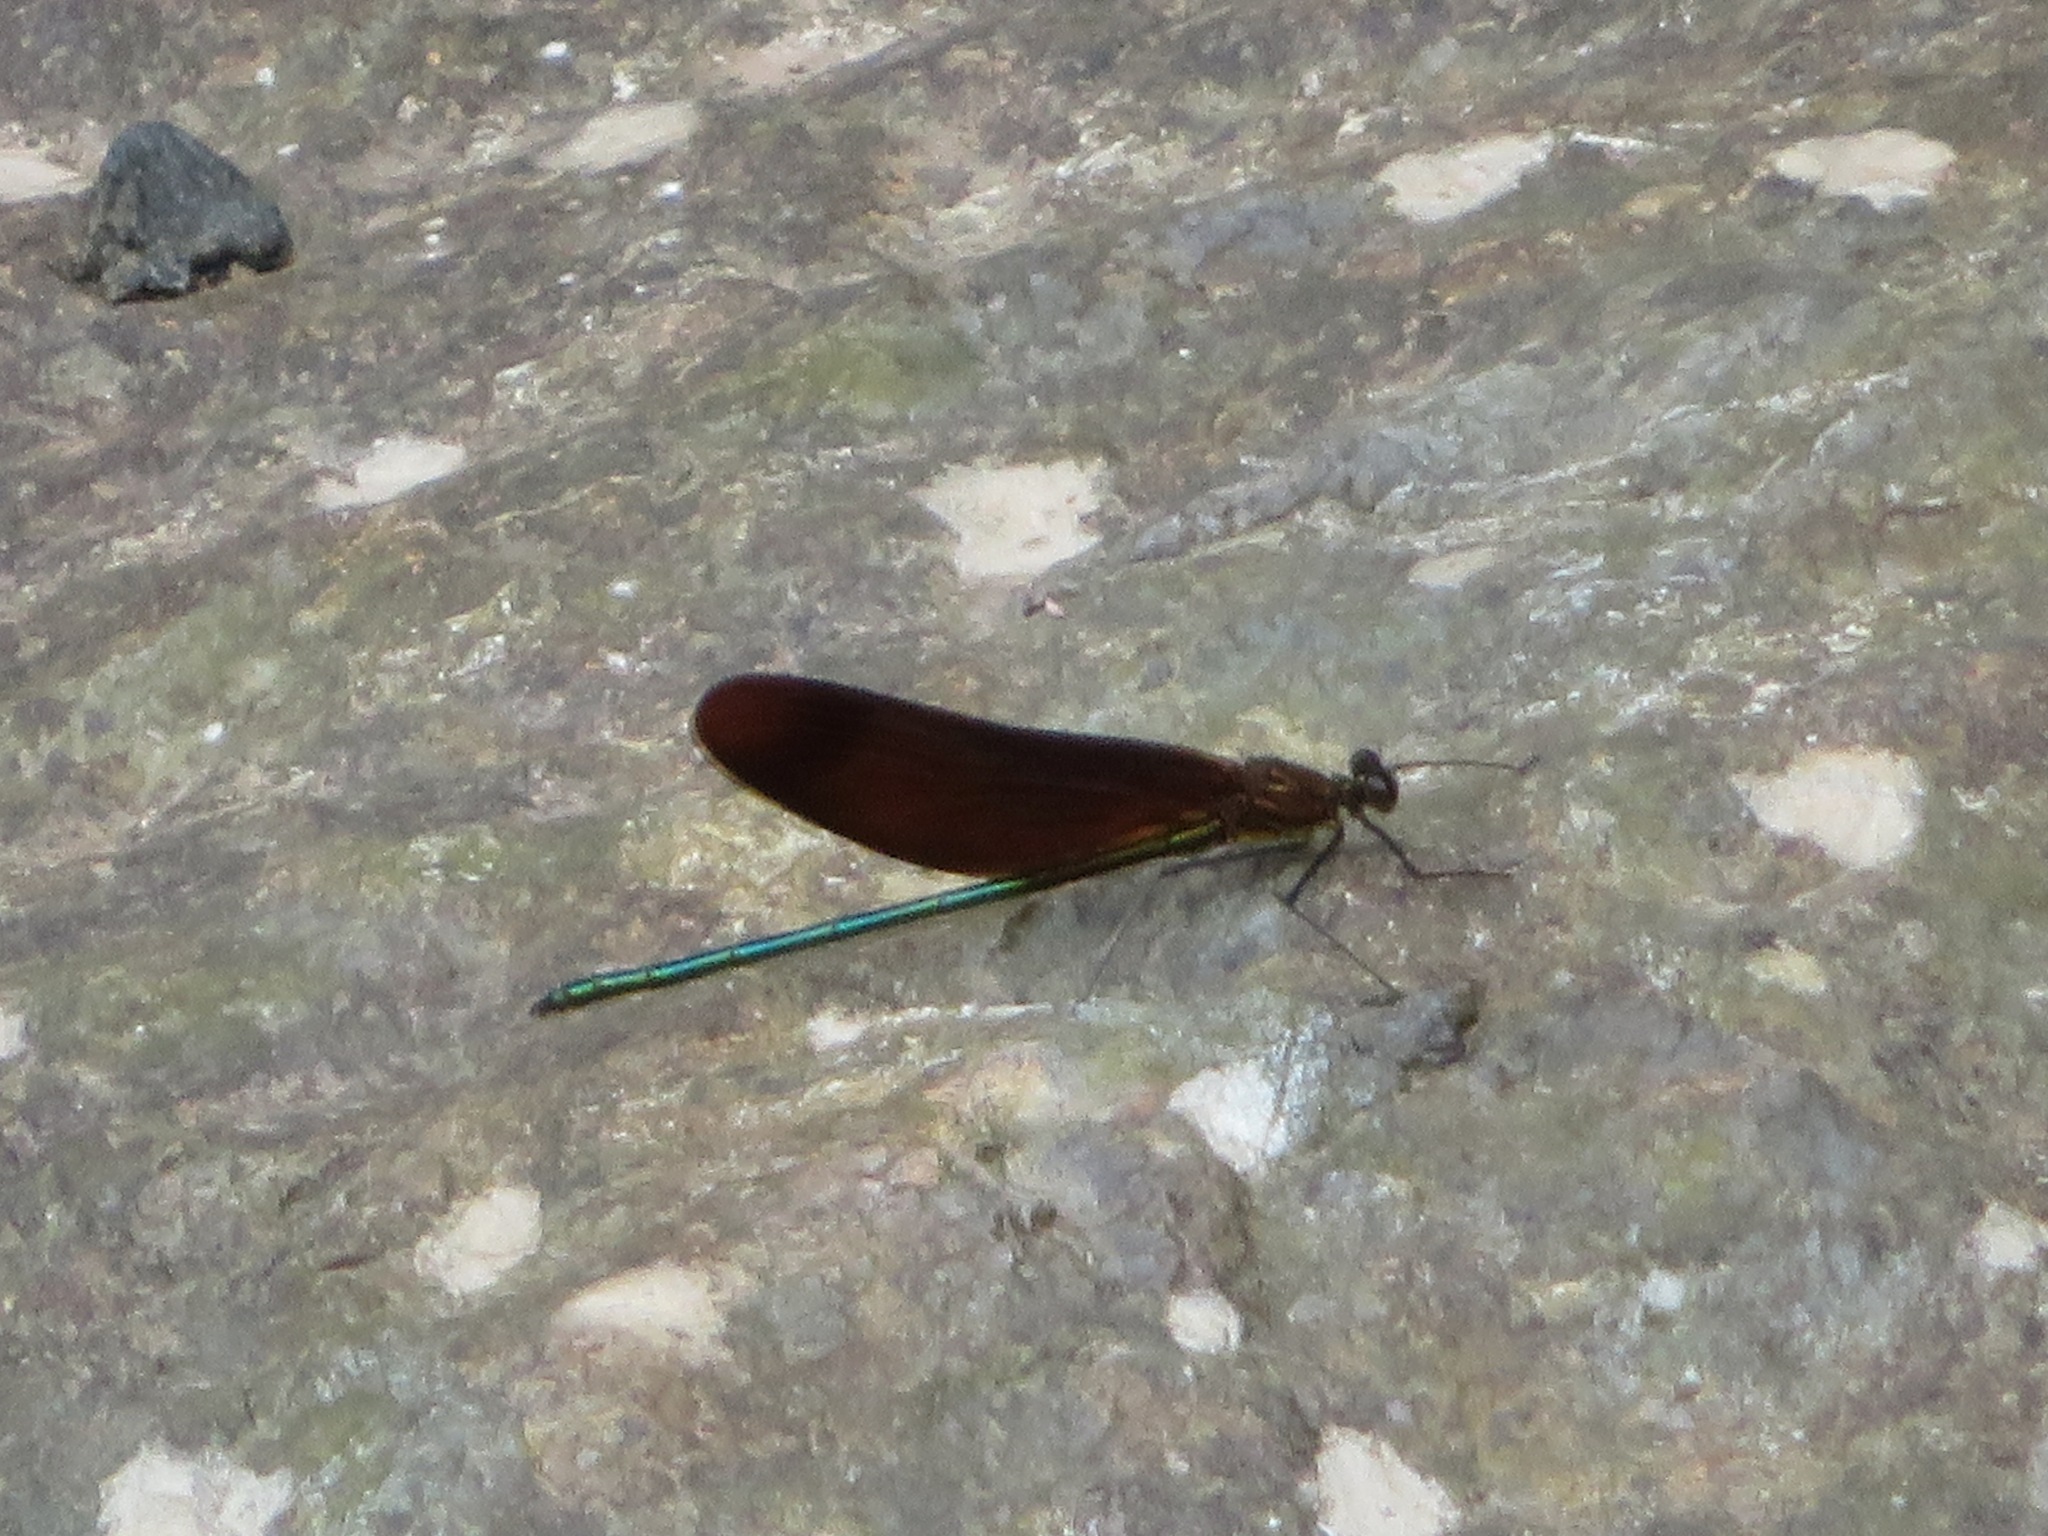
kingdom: Animalia
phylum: Arthropoda
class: Insecta
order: Odonata
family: Calopterygidae
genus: Calopteryx
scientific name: Calopteryx cornelia
